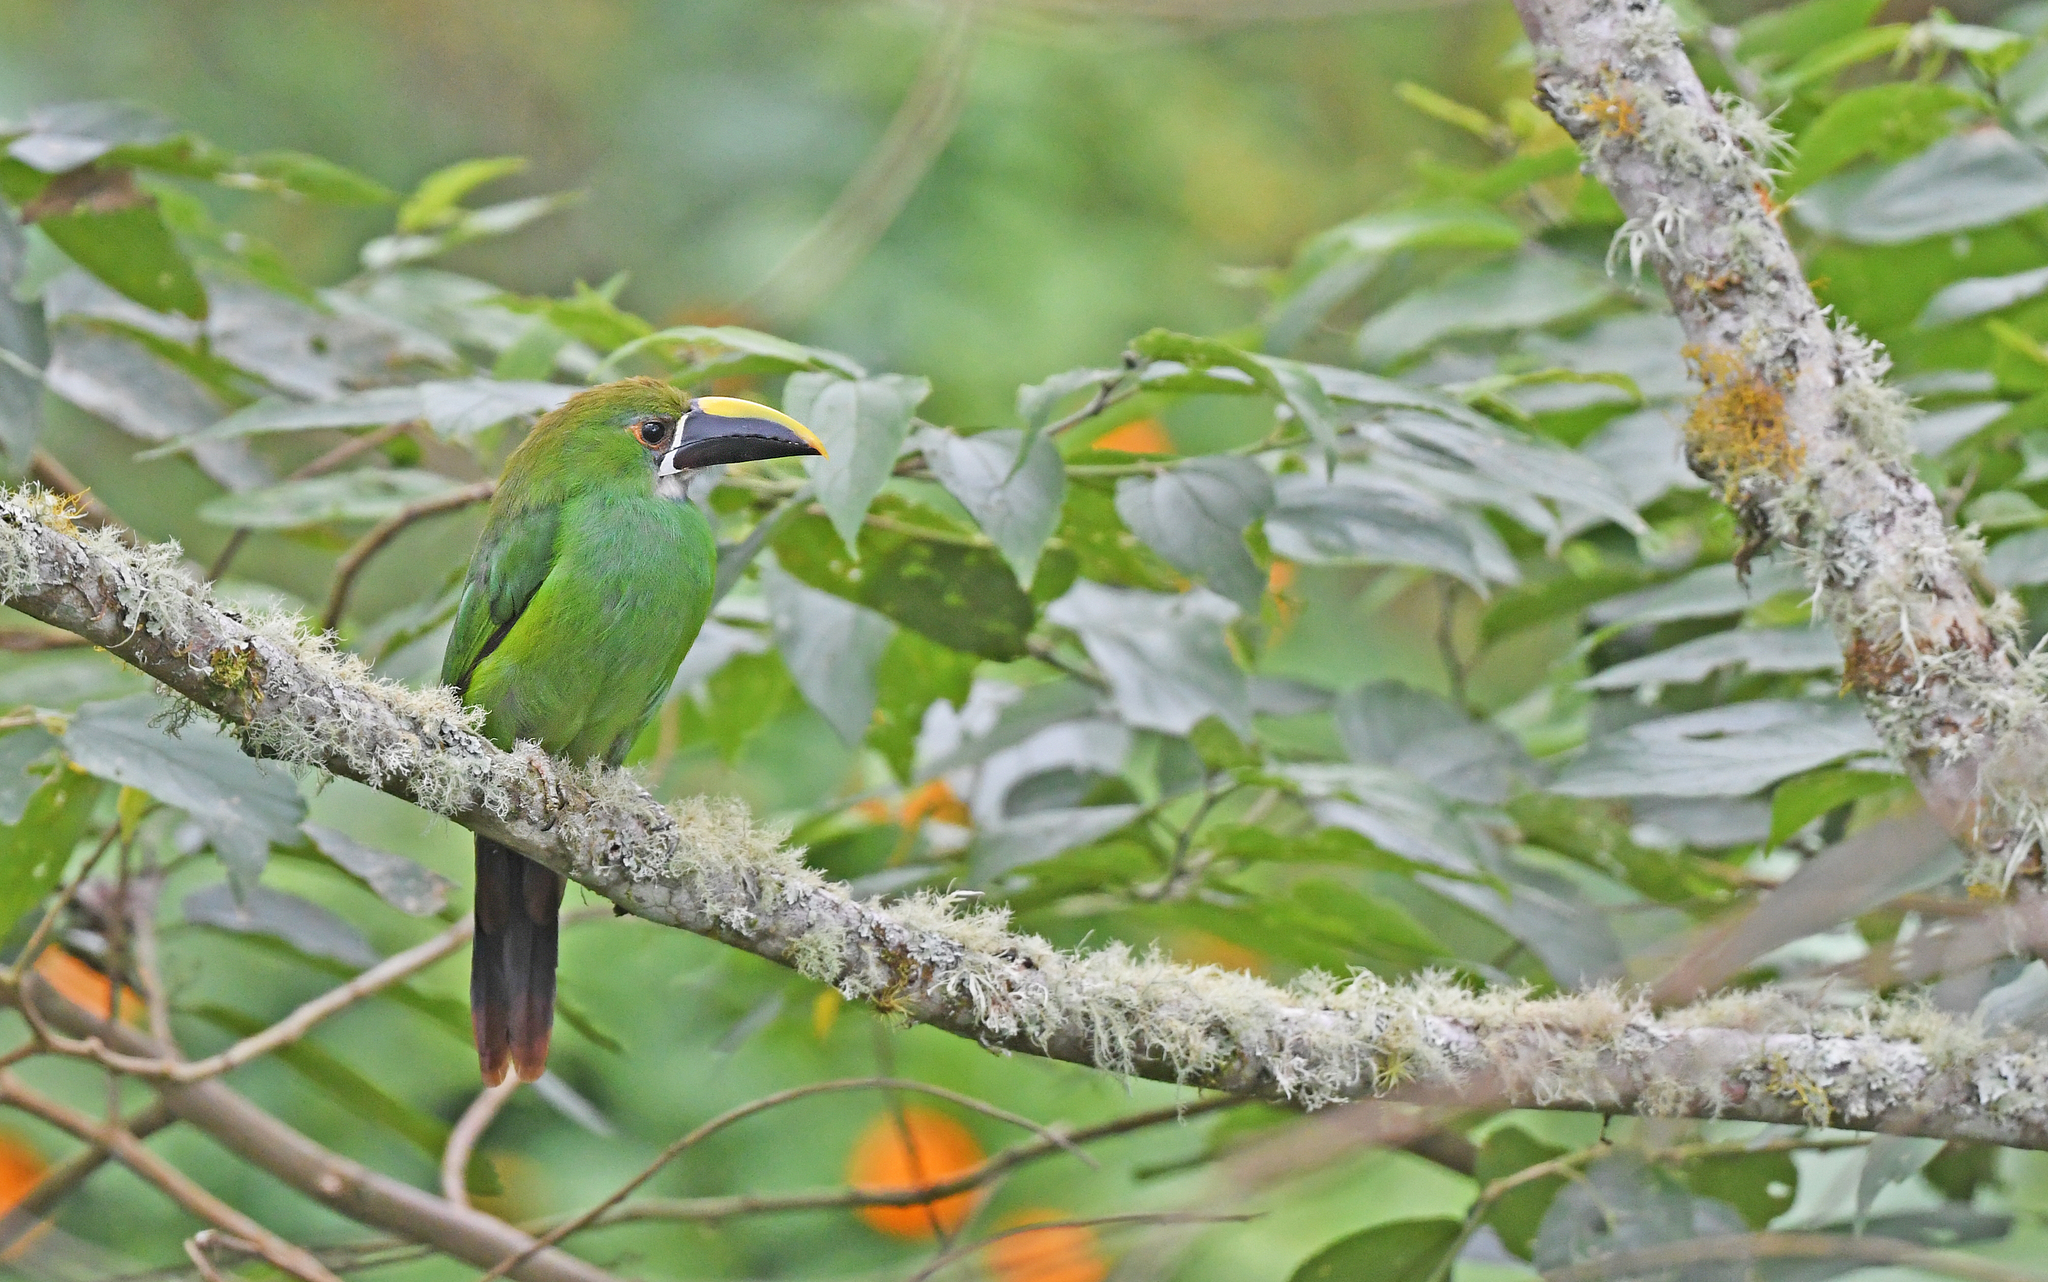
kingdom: Animalia
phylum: Chordata
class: Aves
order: Piciformes
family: Ramphastidae
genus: Aulacorhynchus
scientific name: Aulacorhynchus albivitta
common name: White-throated toucanet
